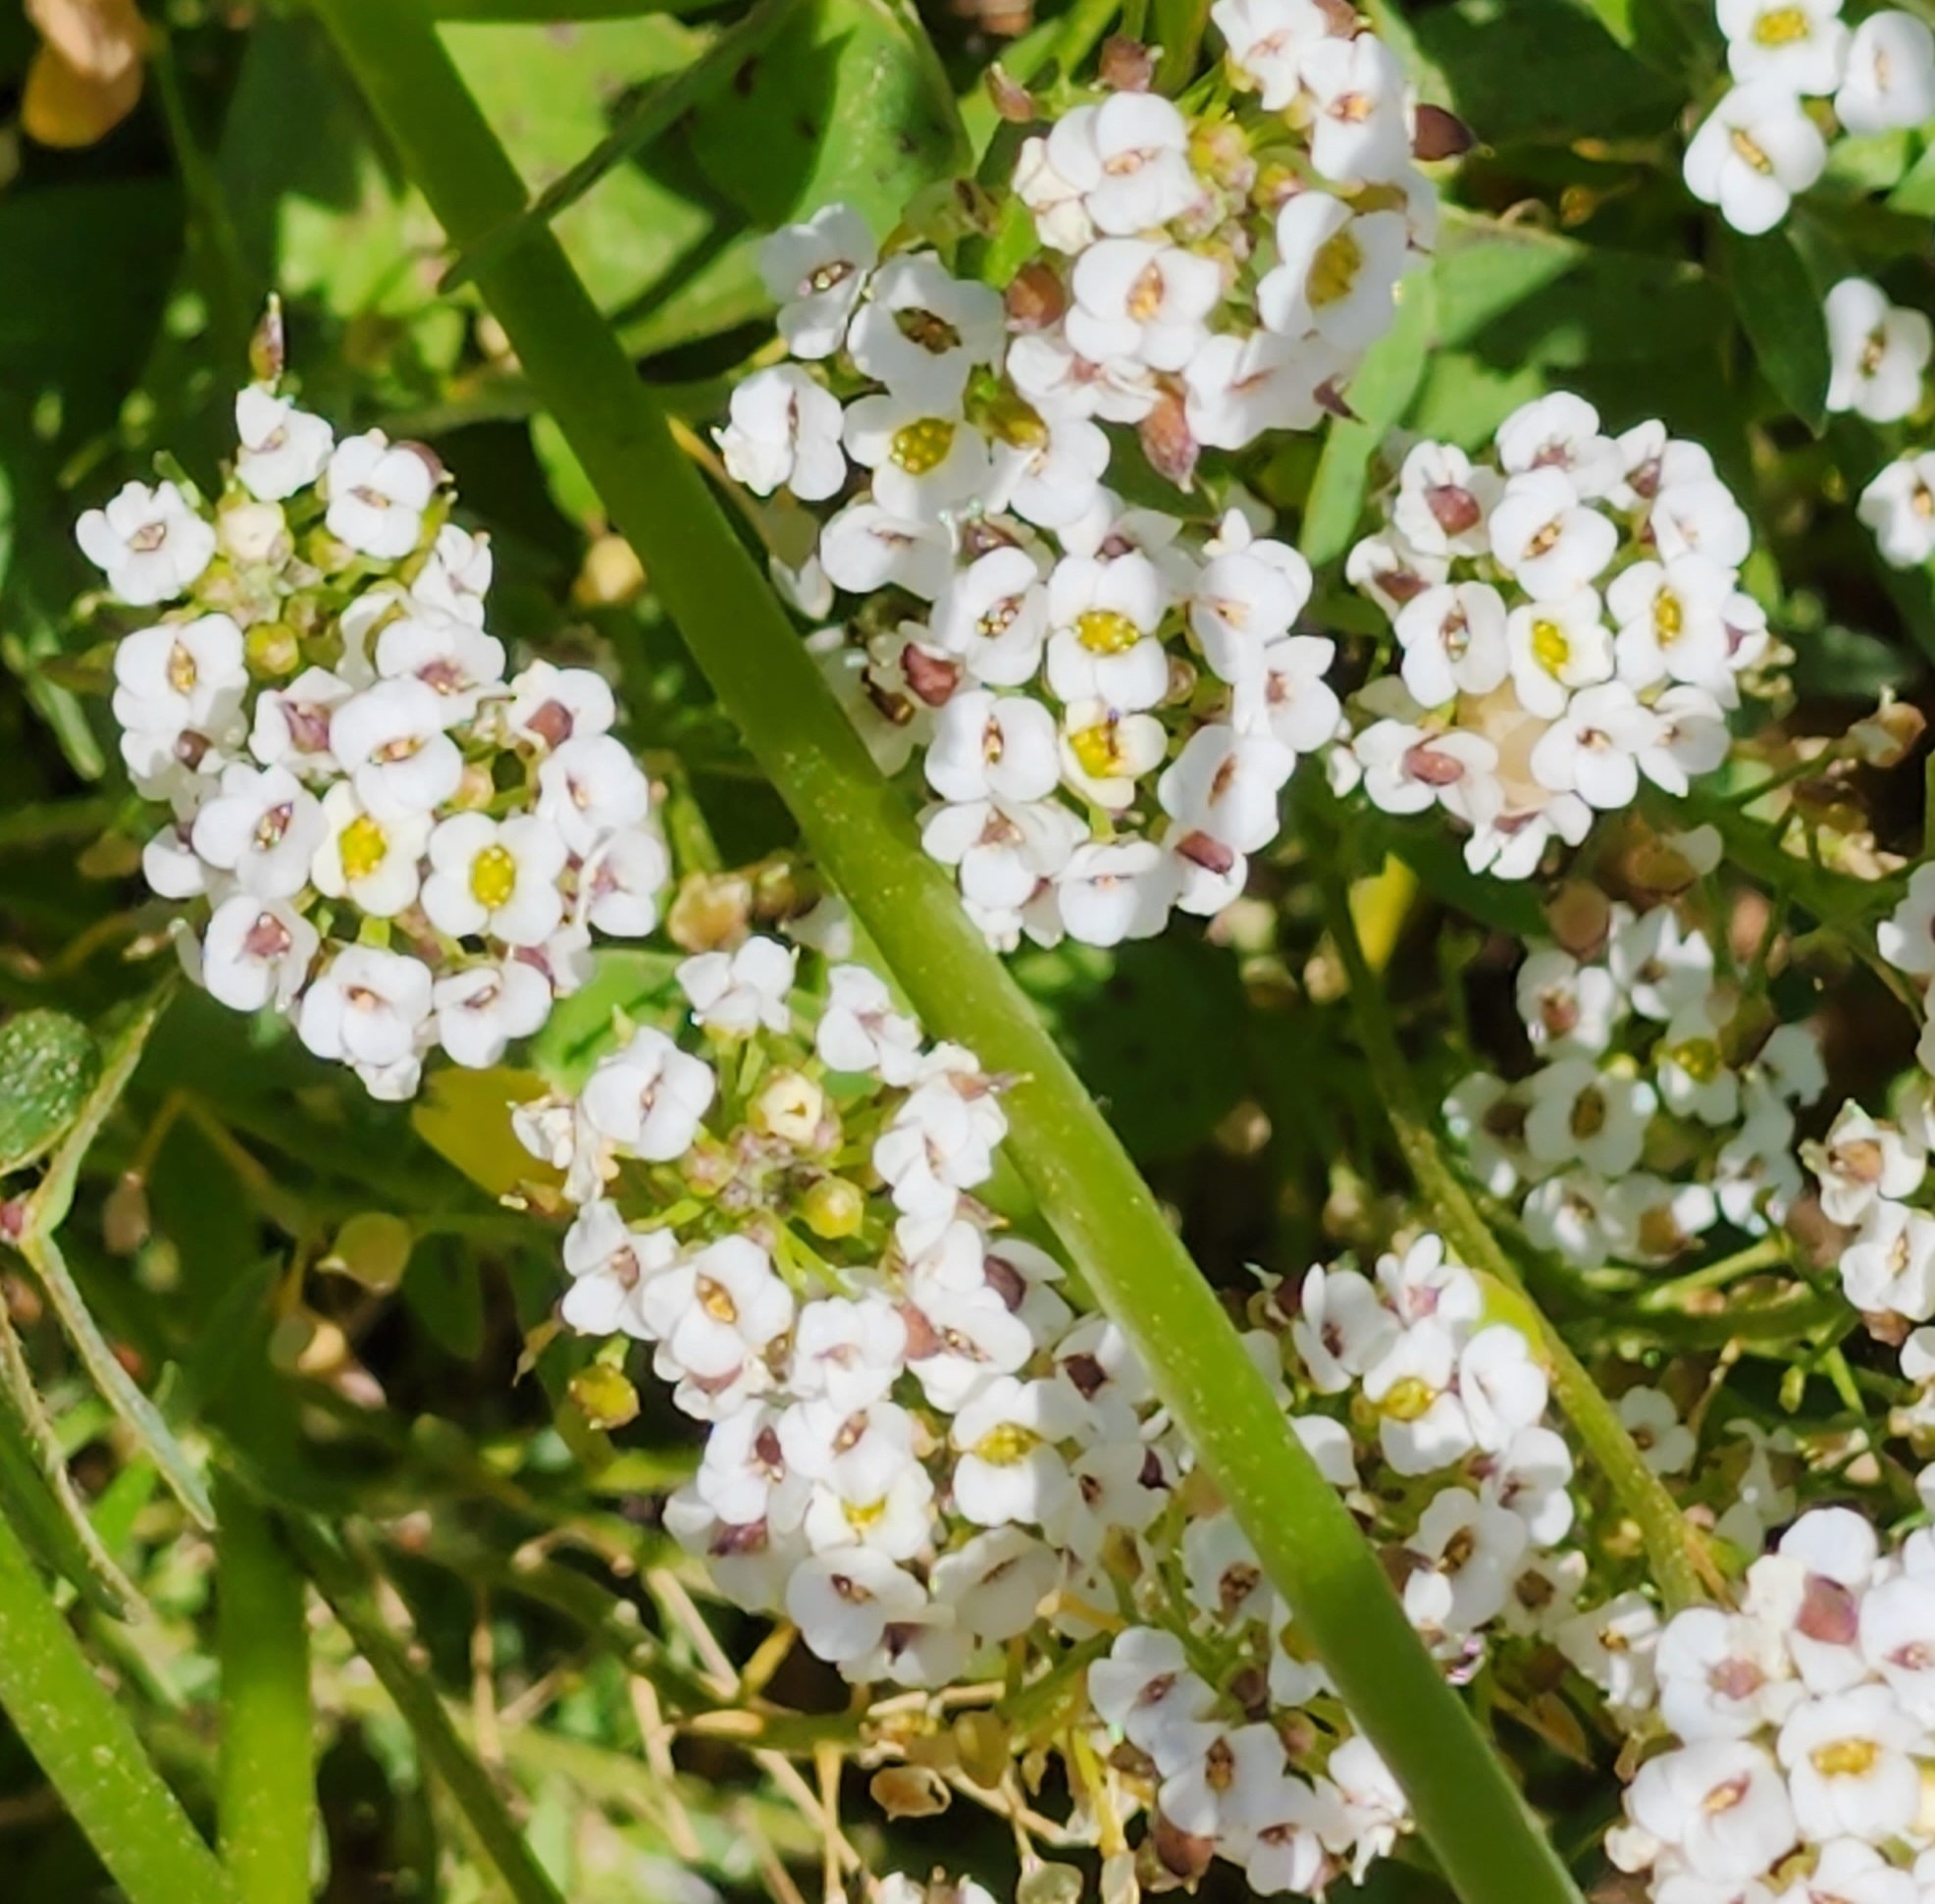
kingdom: Plantae
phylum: Tracheophyta
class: Magnoliopsida
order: Brassicales
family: Brassicaceae
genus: Lobularia
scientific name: Lobularia maritima
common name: Sweet alison
